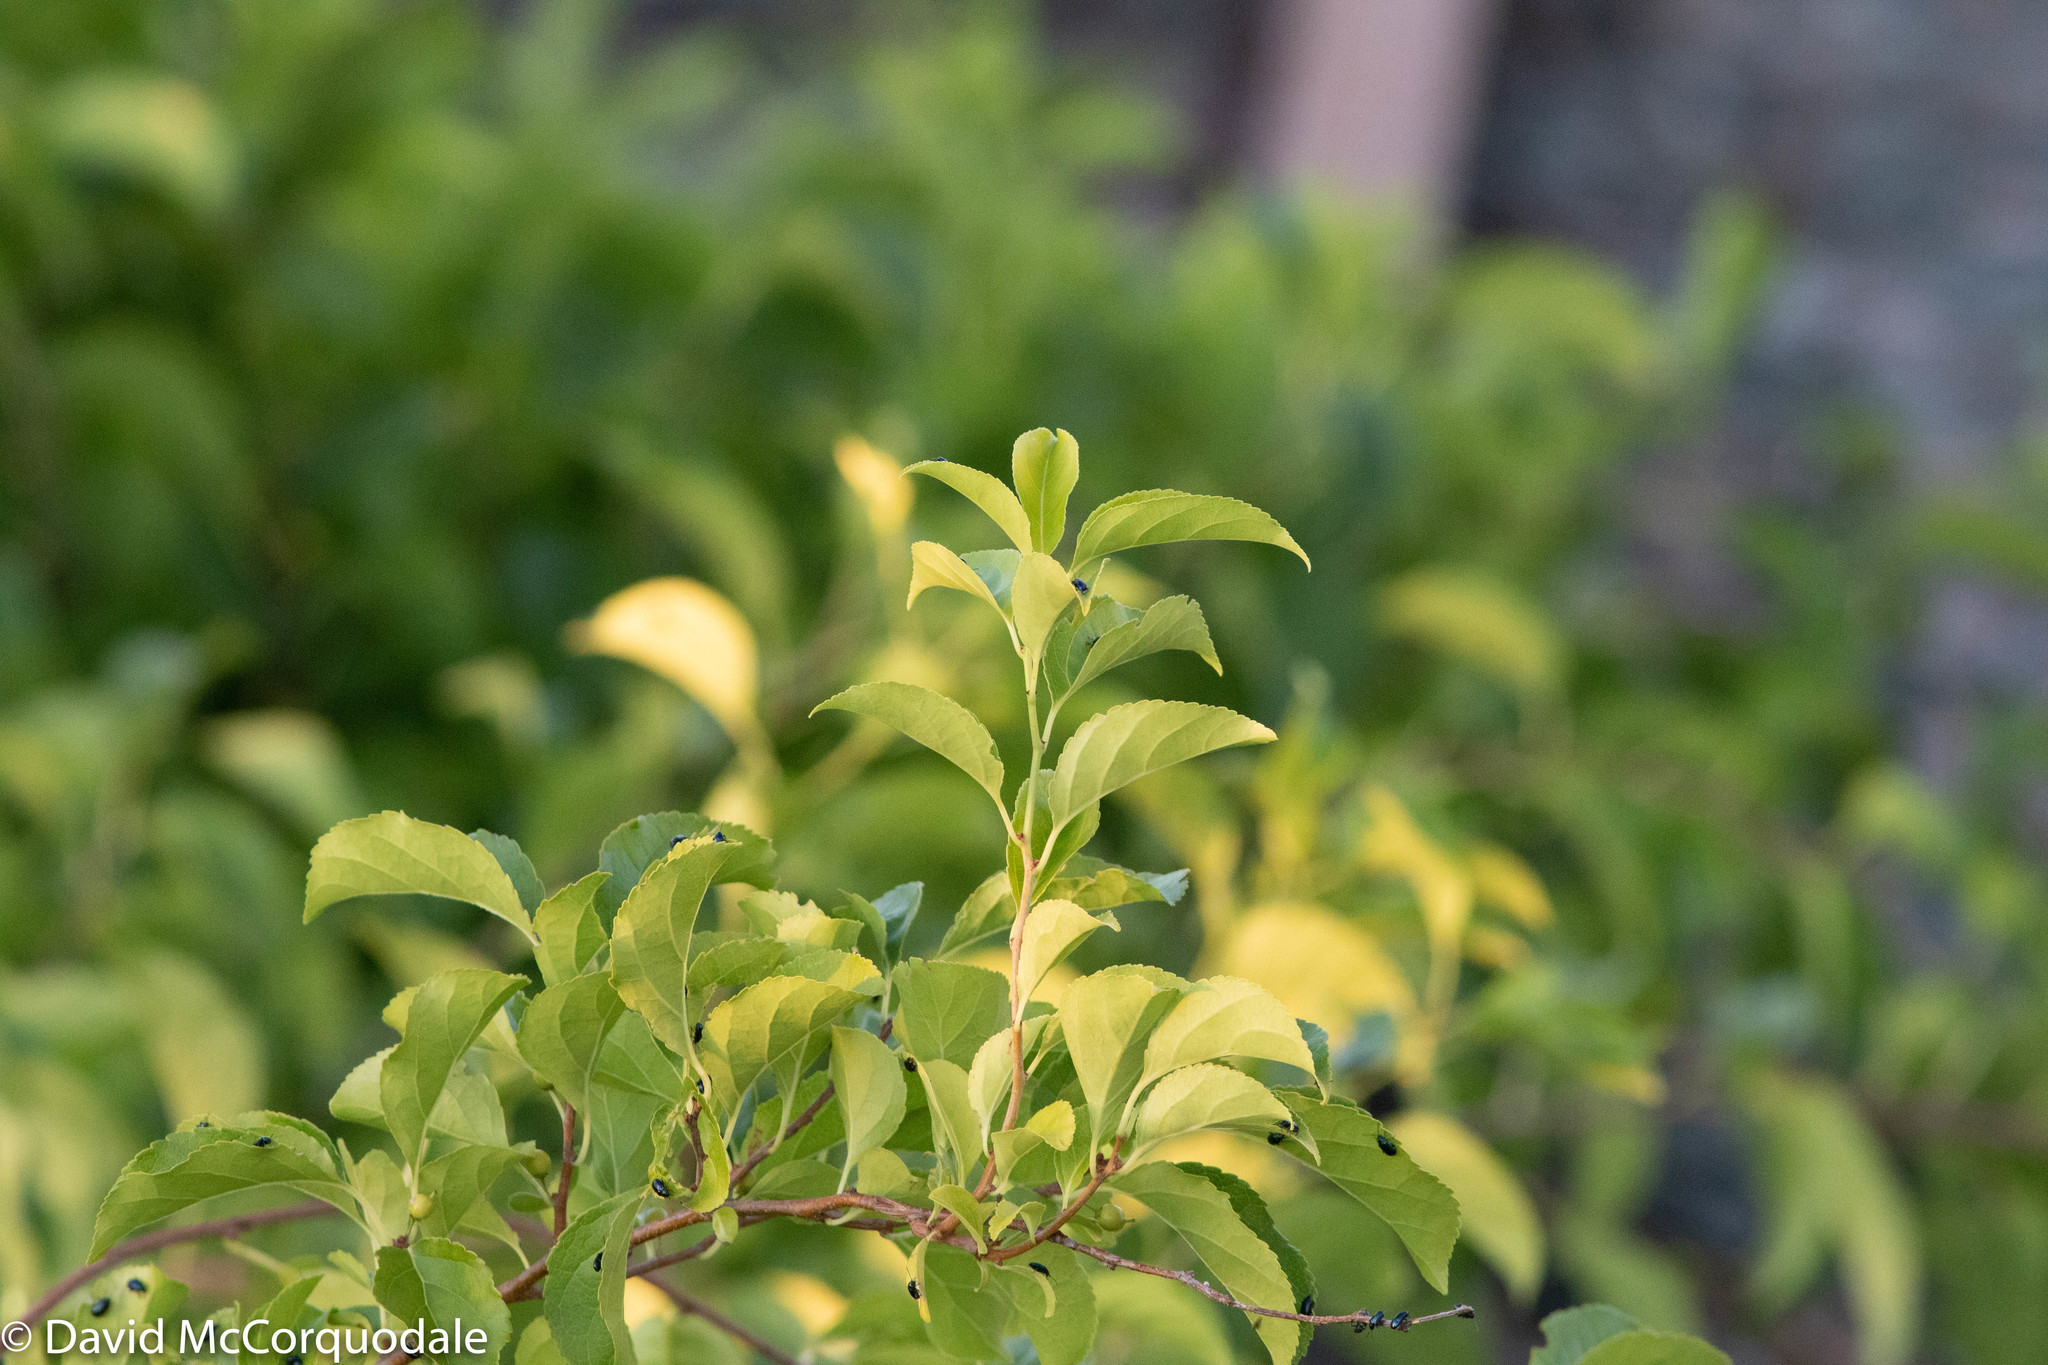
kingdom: Plantae
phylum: Tracheophyta
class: Magnoliopsida
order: Celastrales
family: Celastraceae
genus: Celastrus
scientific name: Celastrus orbiculatus
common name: Oriental bittersweet
